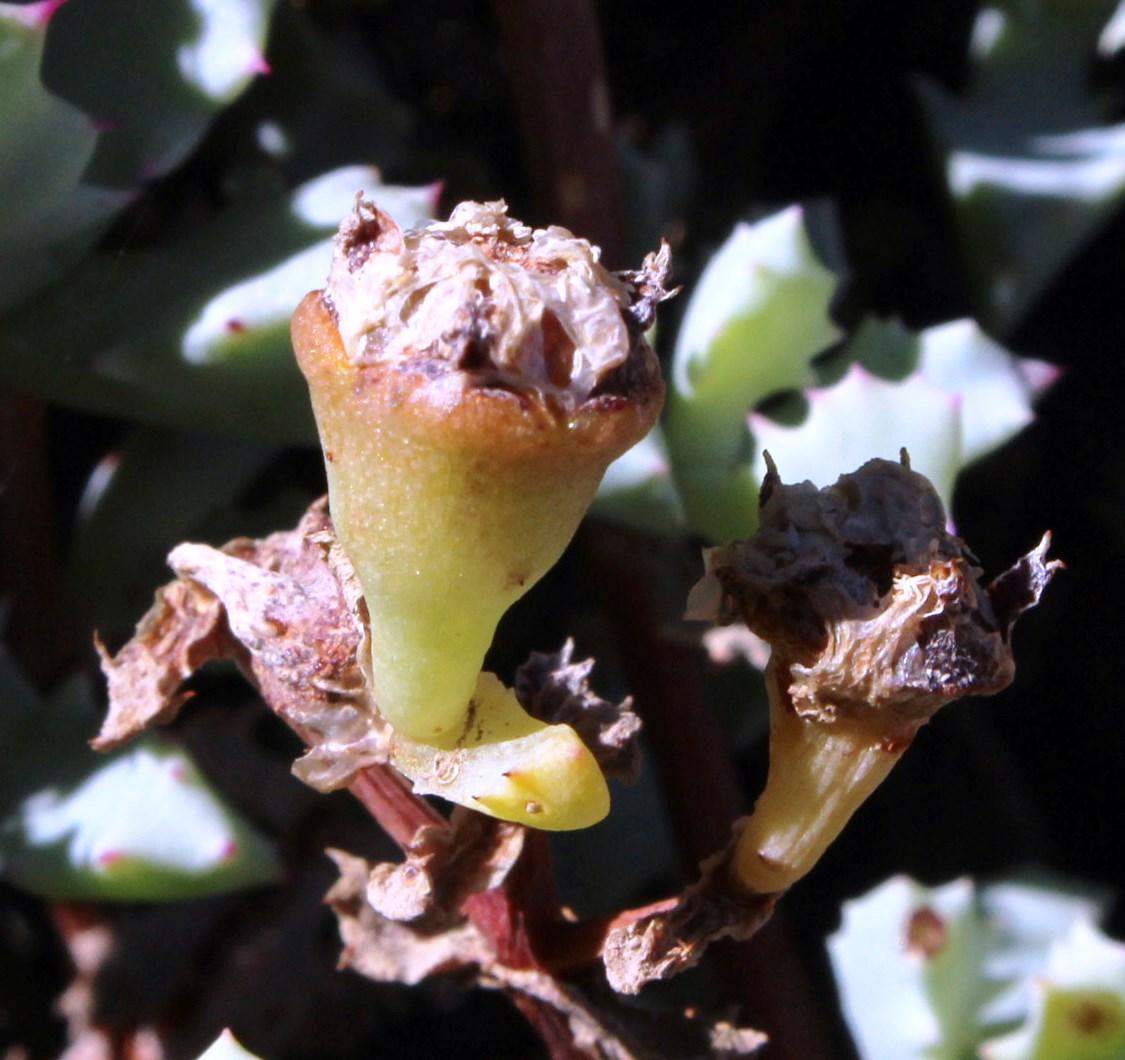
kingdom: Plantae
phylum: Tracheophyta
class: Magnoliopsida
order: Caryophyllales
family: Aizoaceae
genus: Oscularia
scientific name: Oscularia deltoides
